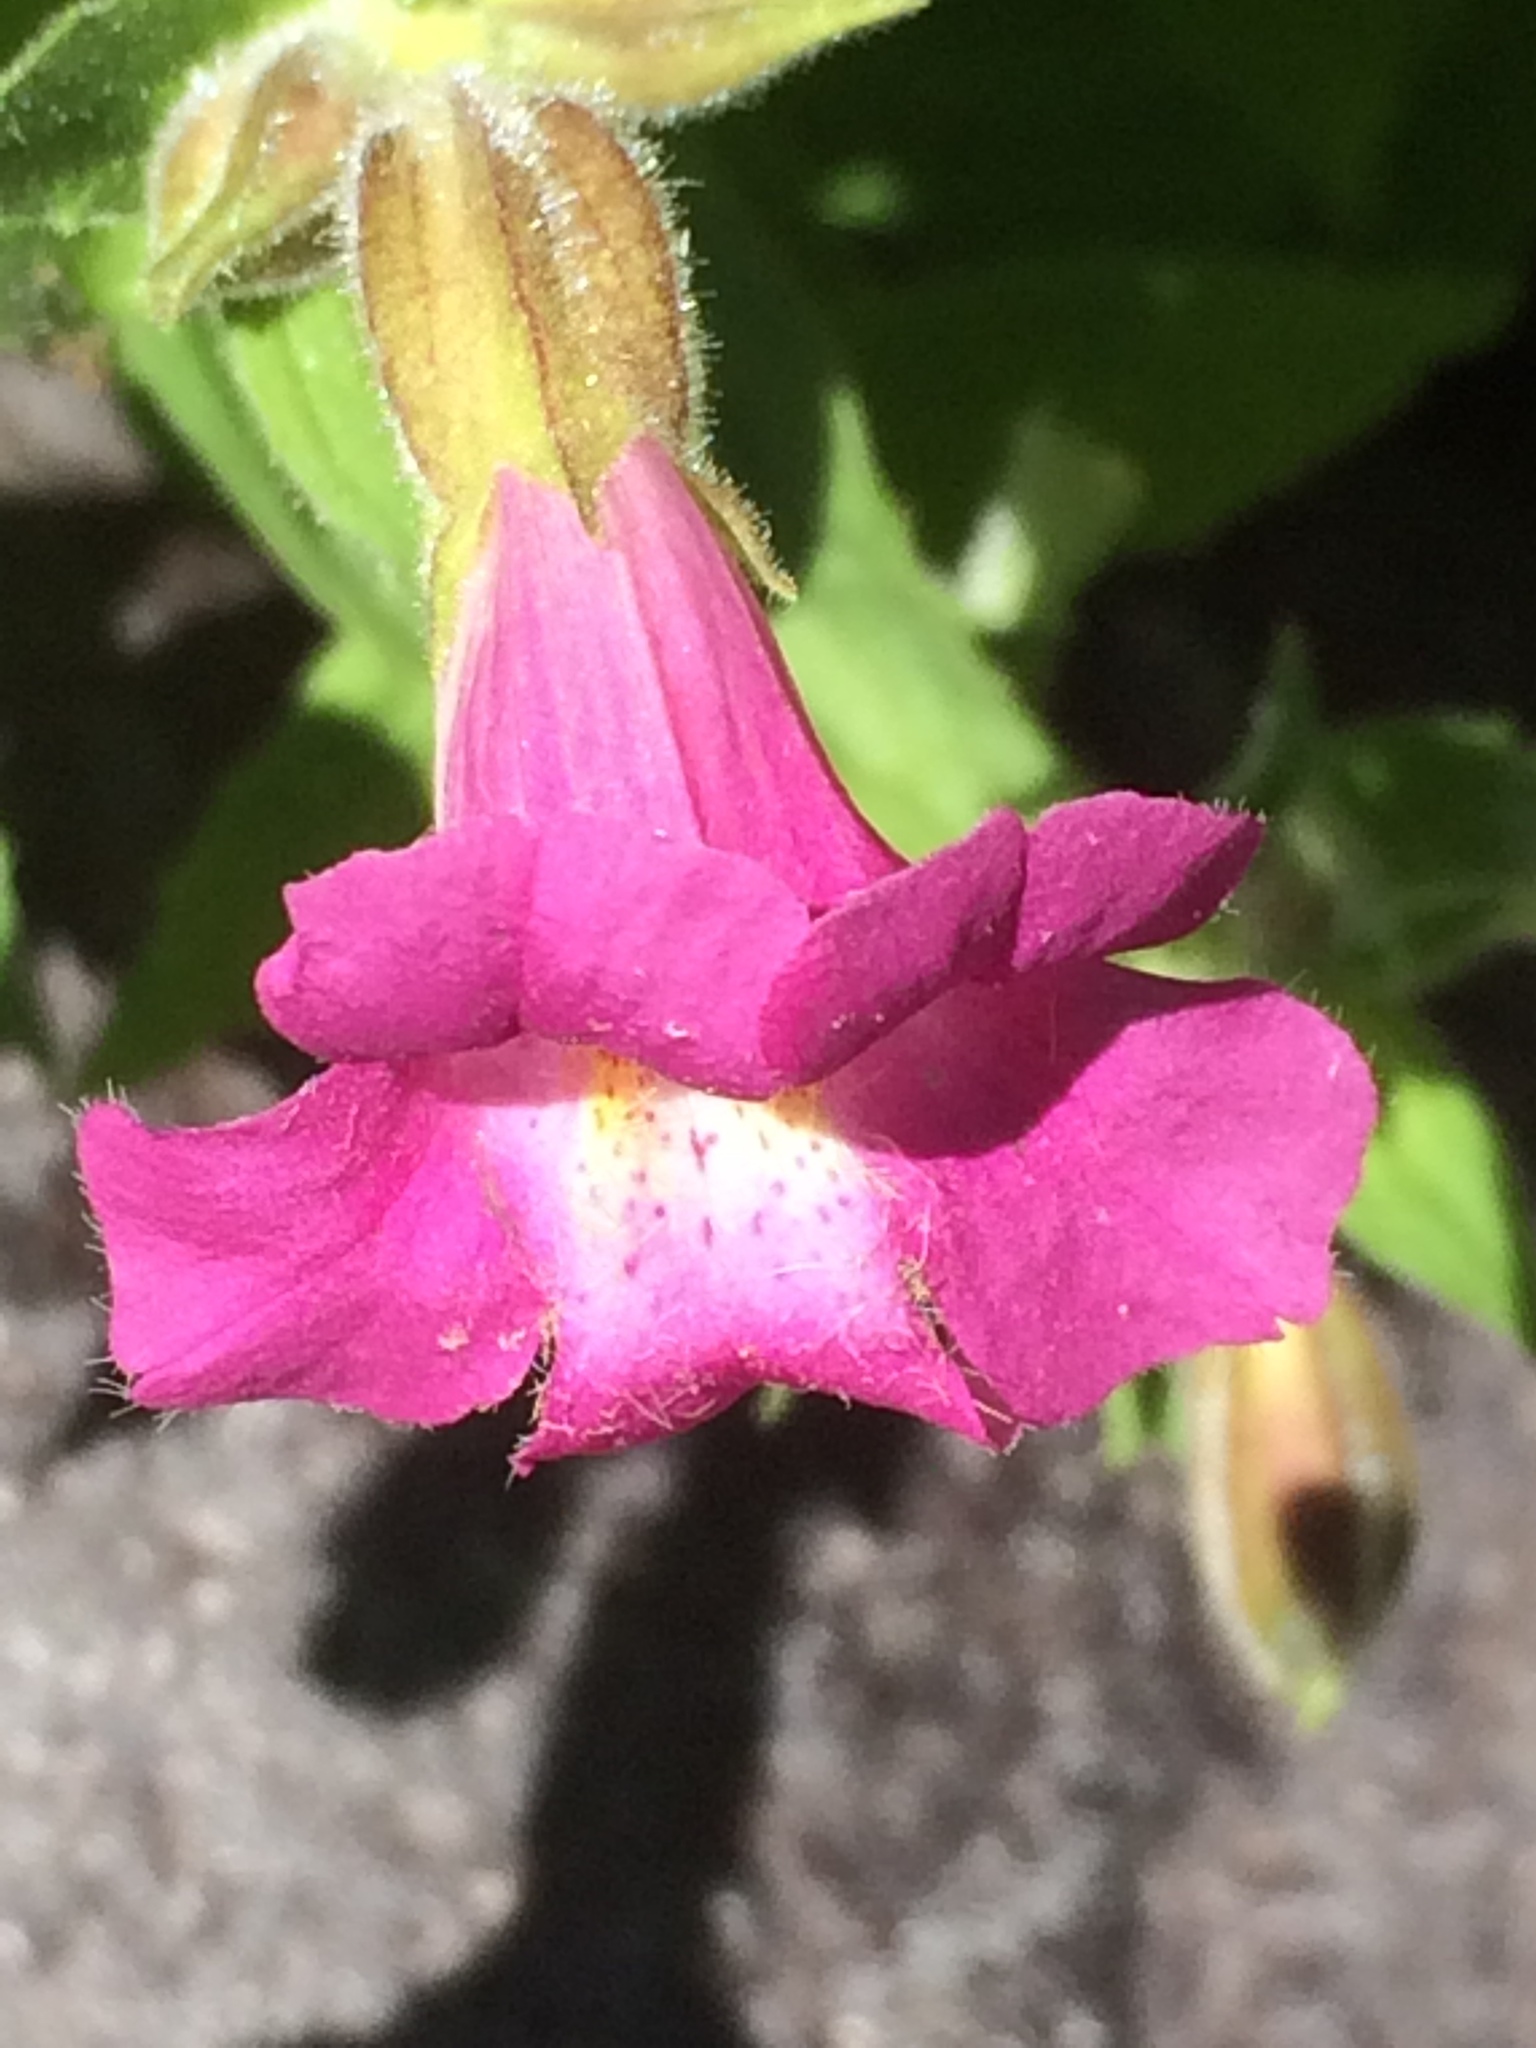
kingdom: Plantae
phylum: Tracheophyta
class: Magnoliopsida
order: Lamiales
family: Phrymaceae
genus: Erythranthe
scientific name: Erythranthe lewisii
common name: Lewis's monkey-flower
